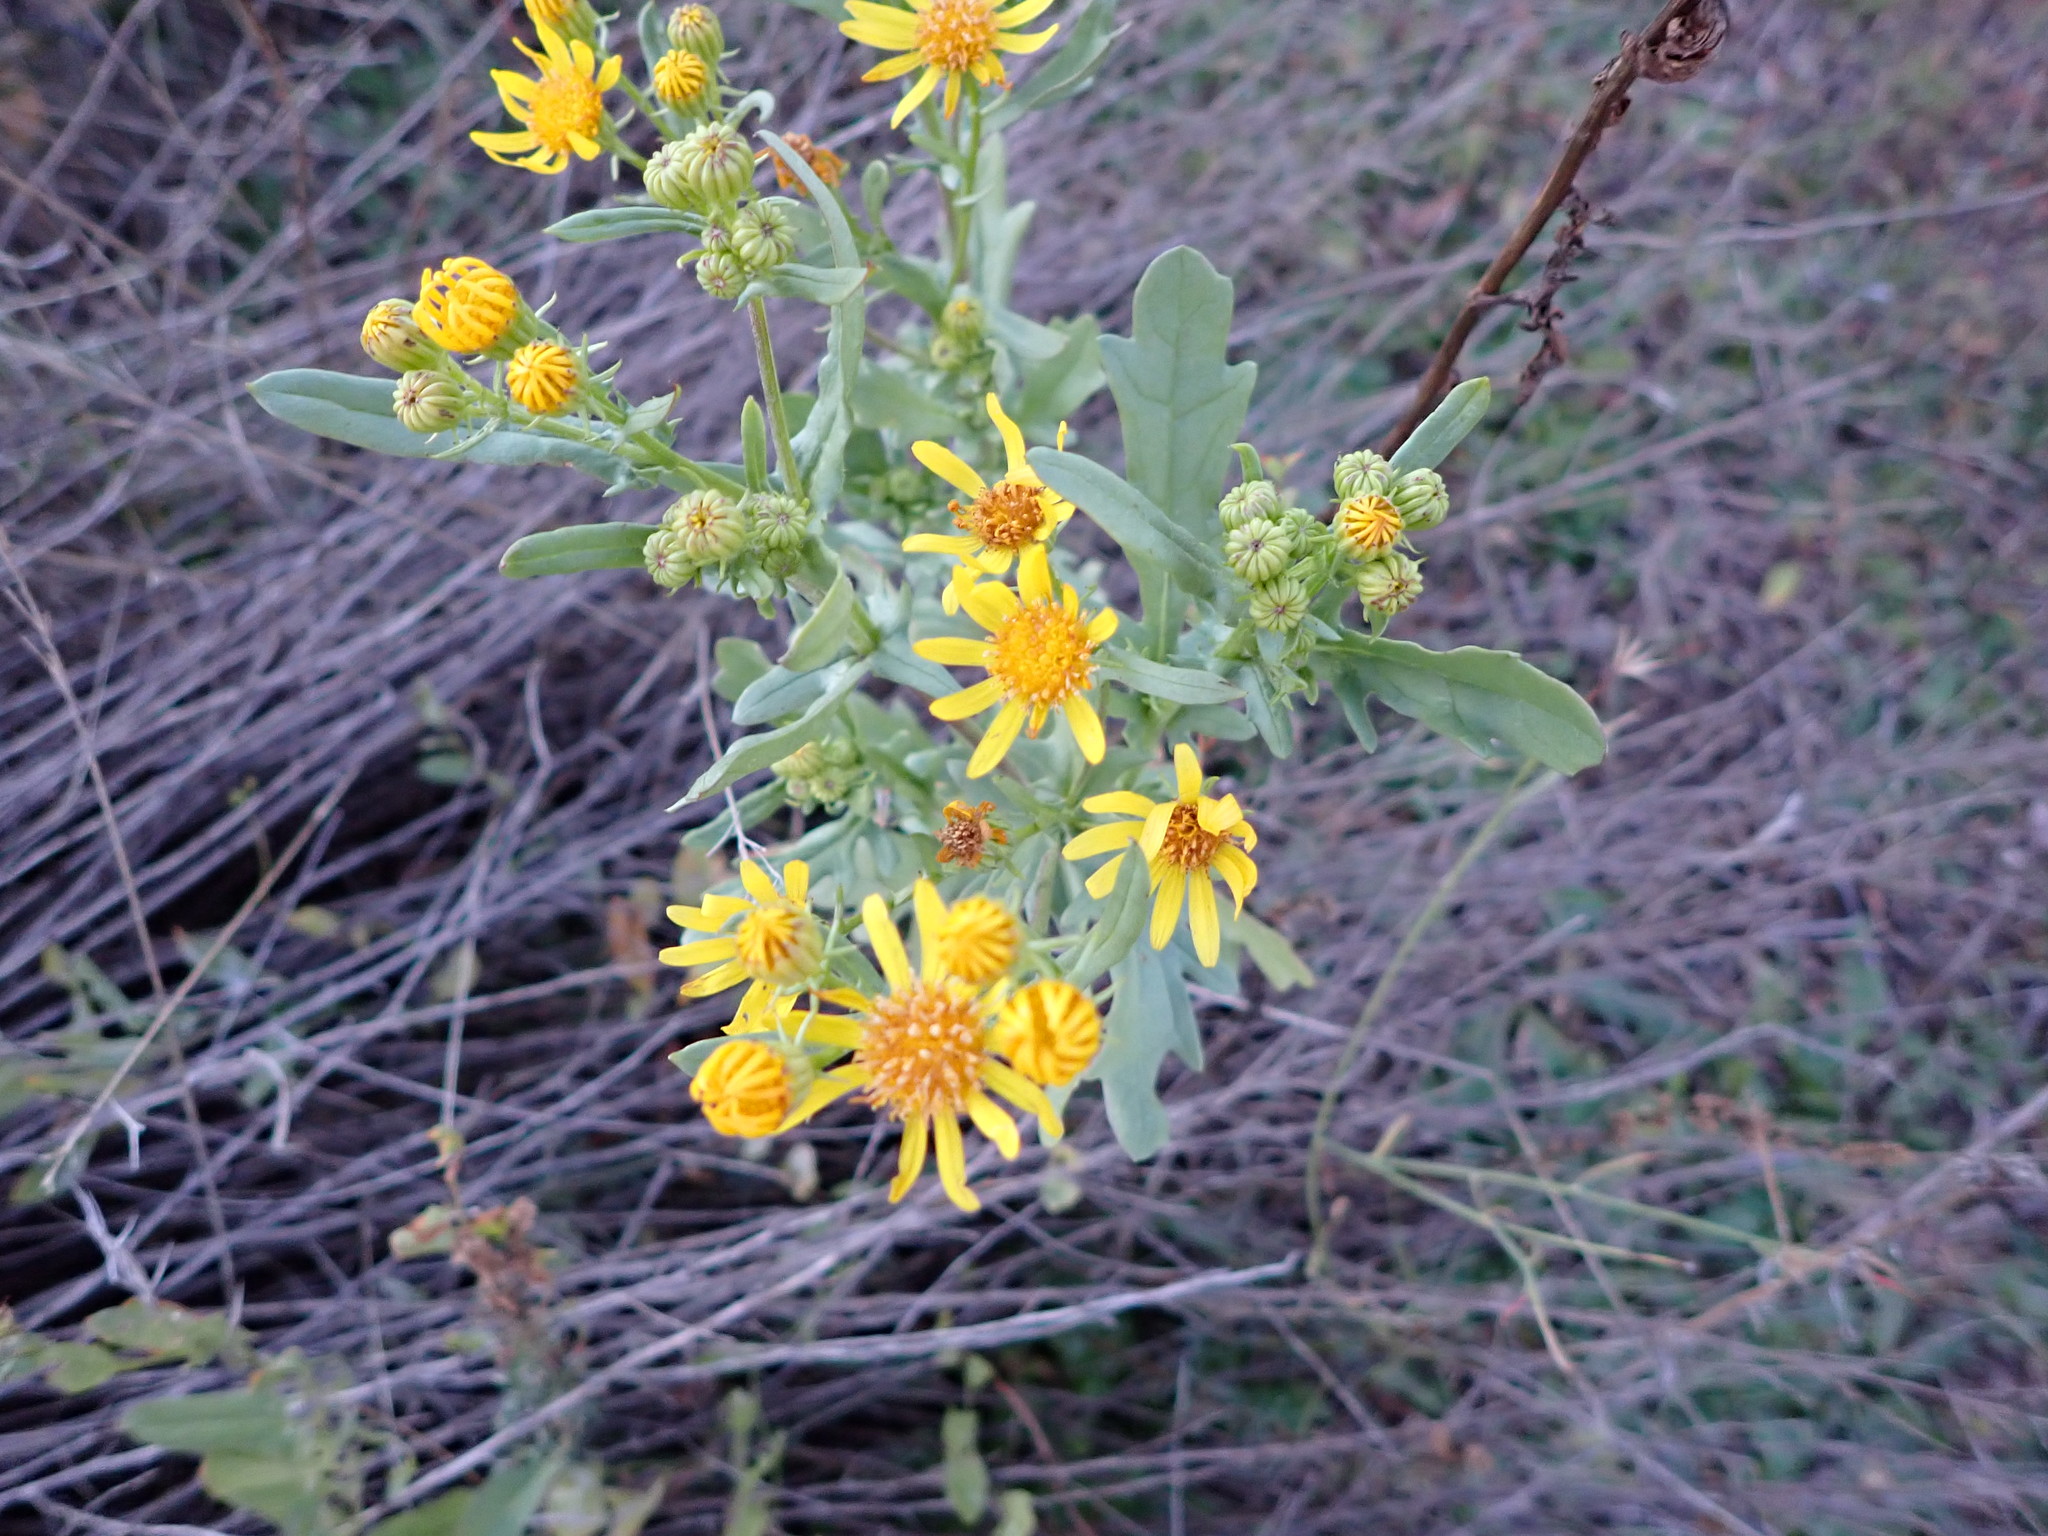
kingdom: Plantae
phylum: Tracheophyta
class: Magnoliopsida
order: Asterales
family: Asteraceae
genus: Jacobaea
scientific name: Jacobaea vulgaris
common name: Stinking willie
